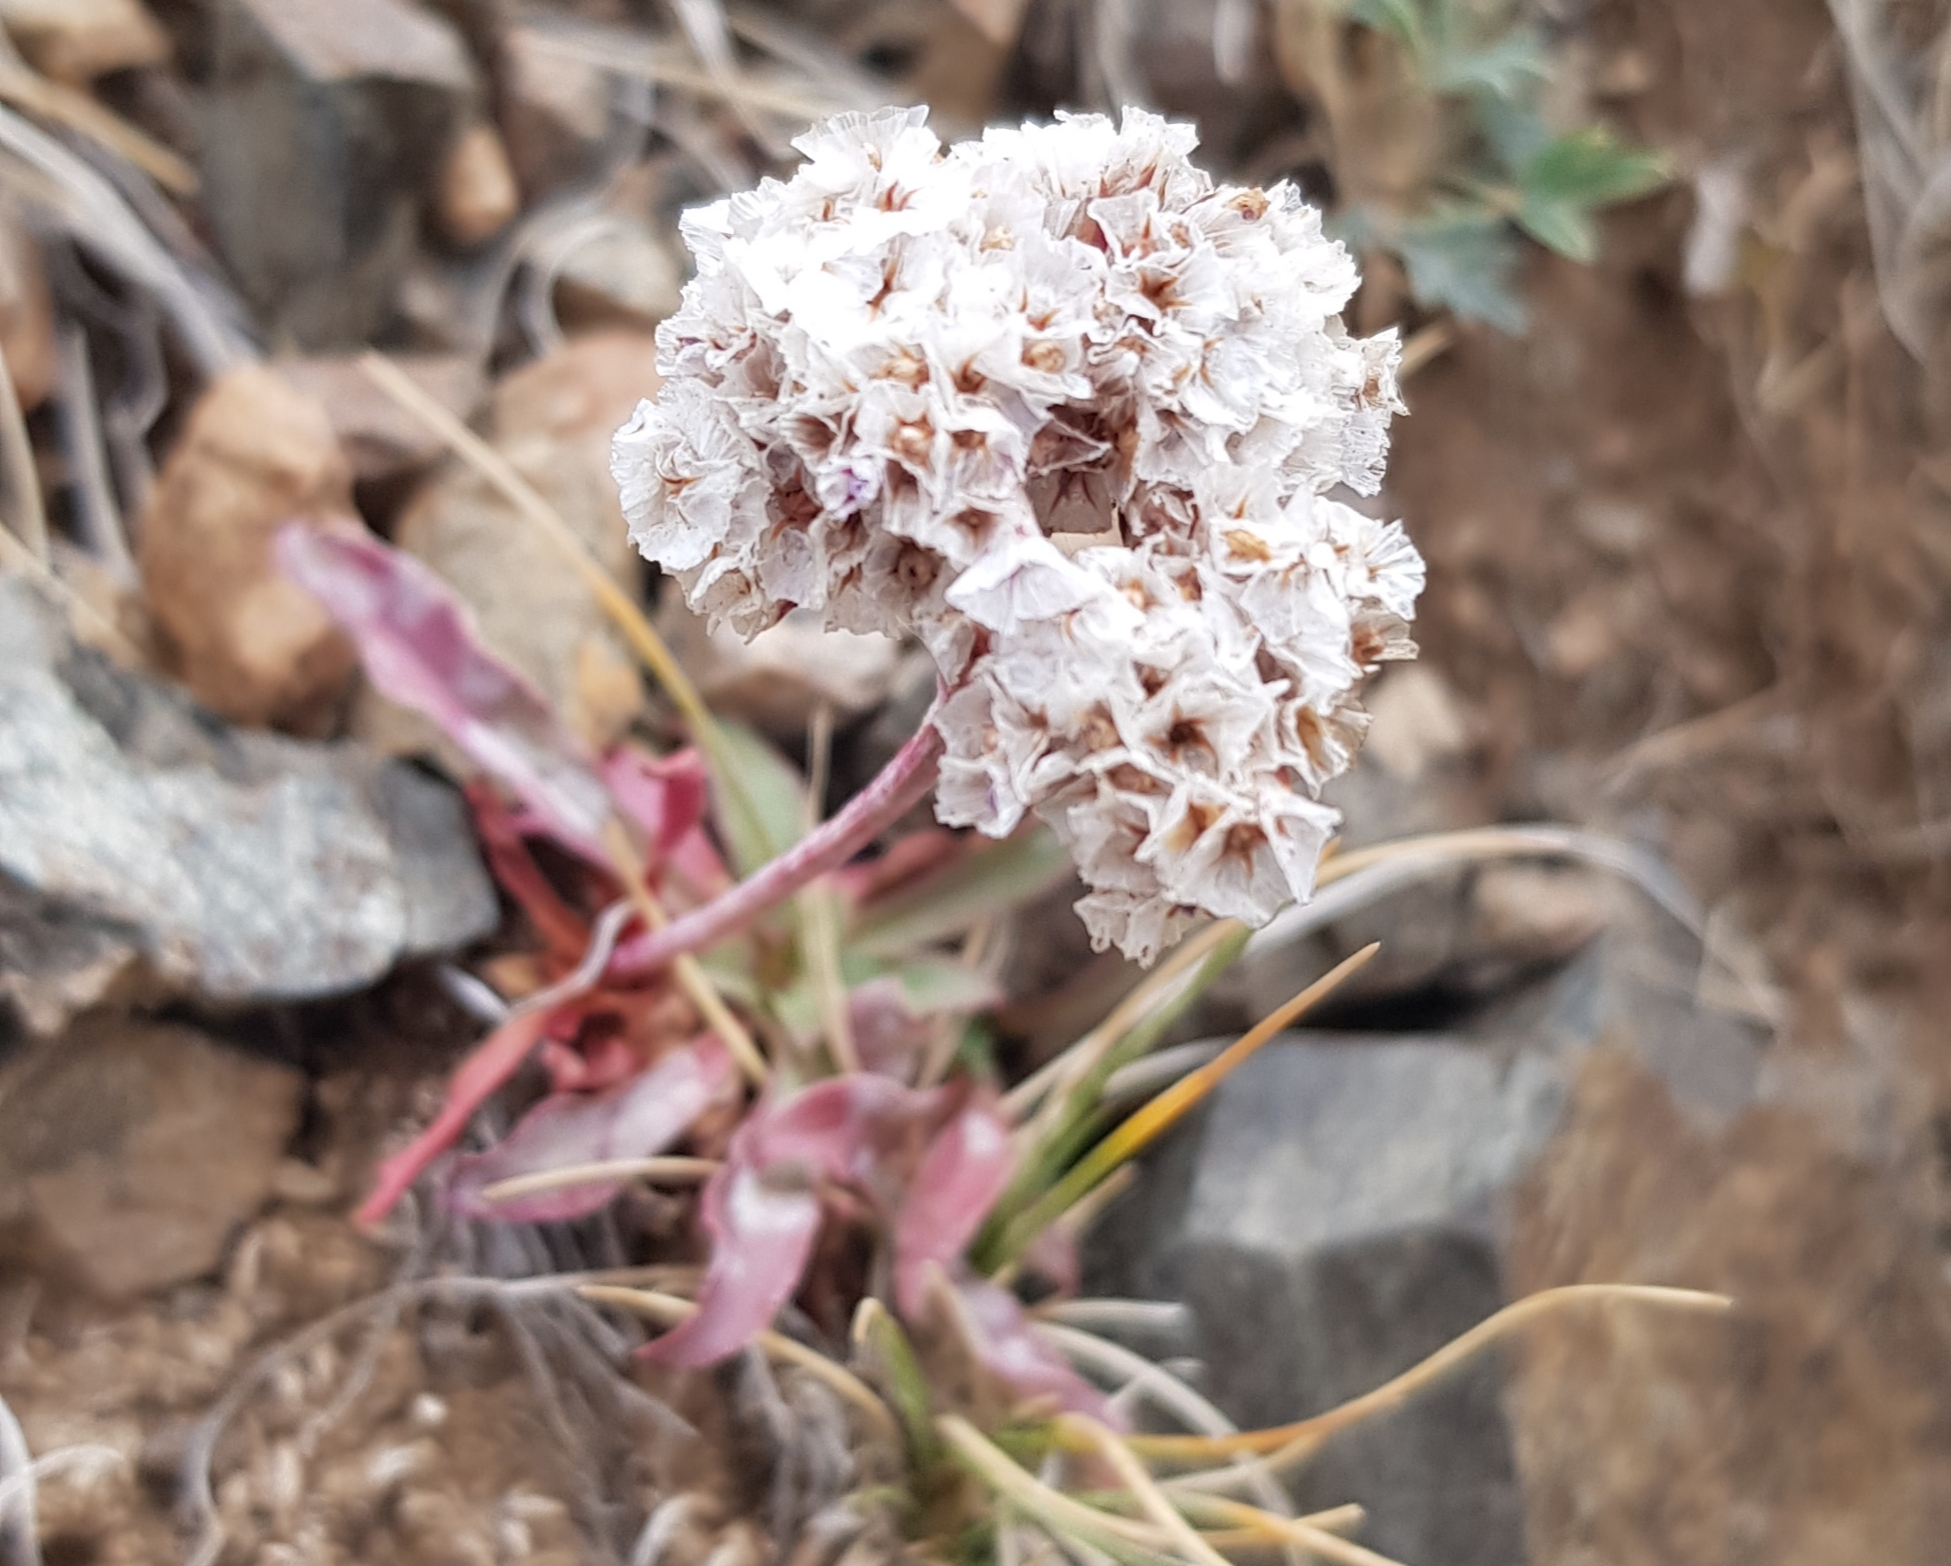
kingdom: Plantae
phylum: Tracheophyta
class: Magnoliopsida
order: Caryophyllales
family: Plumbaginaceae
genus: Goniolimon
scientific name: Goniolimon speciosum
